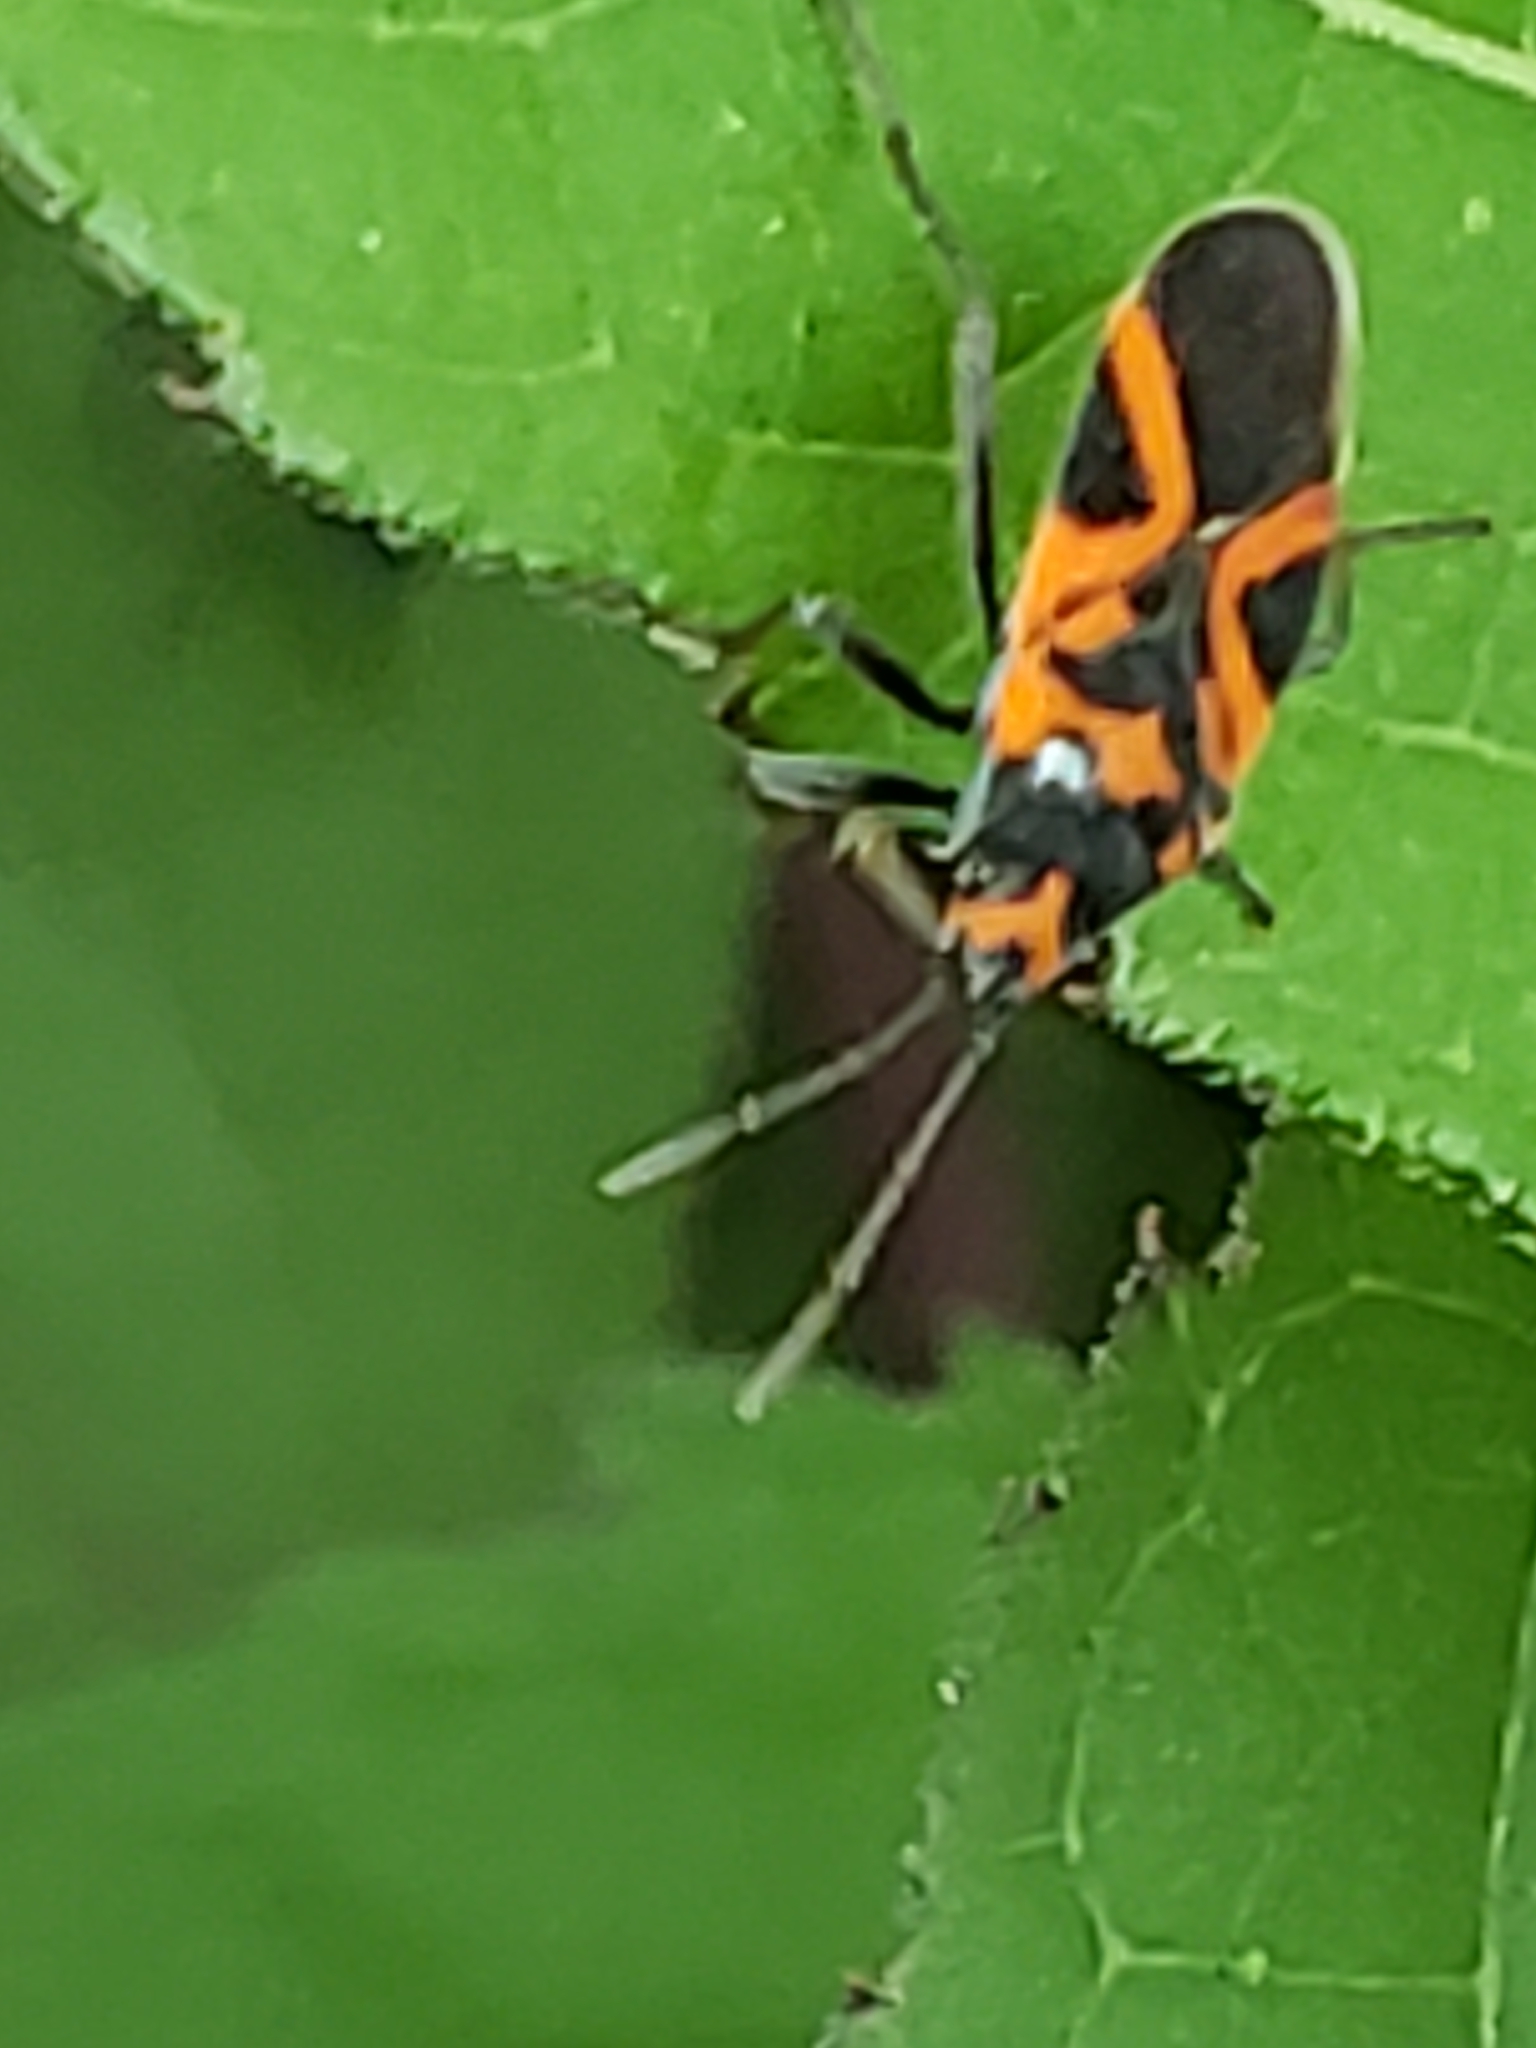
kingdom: Animalia
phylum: Arthropoda
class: Insecta
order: Hemiptera
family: Lygaeidae
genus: Lygaeus
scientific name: Lygaeus turcicus
